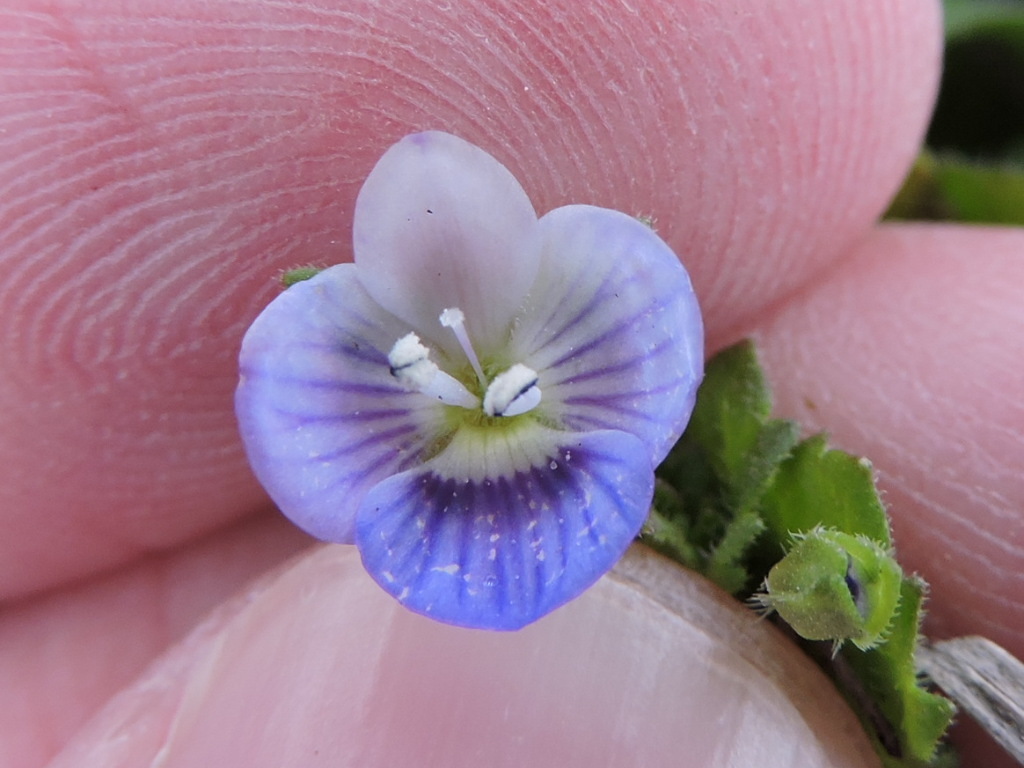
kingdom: Plantae
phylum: Tracheophyta
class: Magnoliopsida
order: Lamiales
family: Plantaginaceae
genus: Veronica
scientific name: Veronica persica
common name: Common field-speedwell
